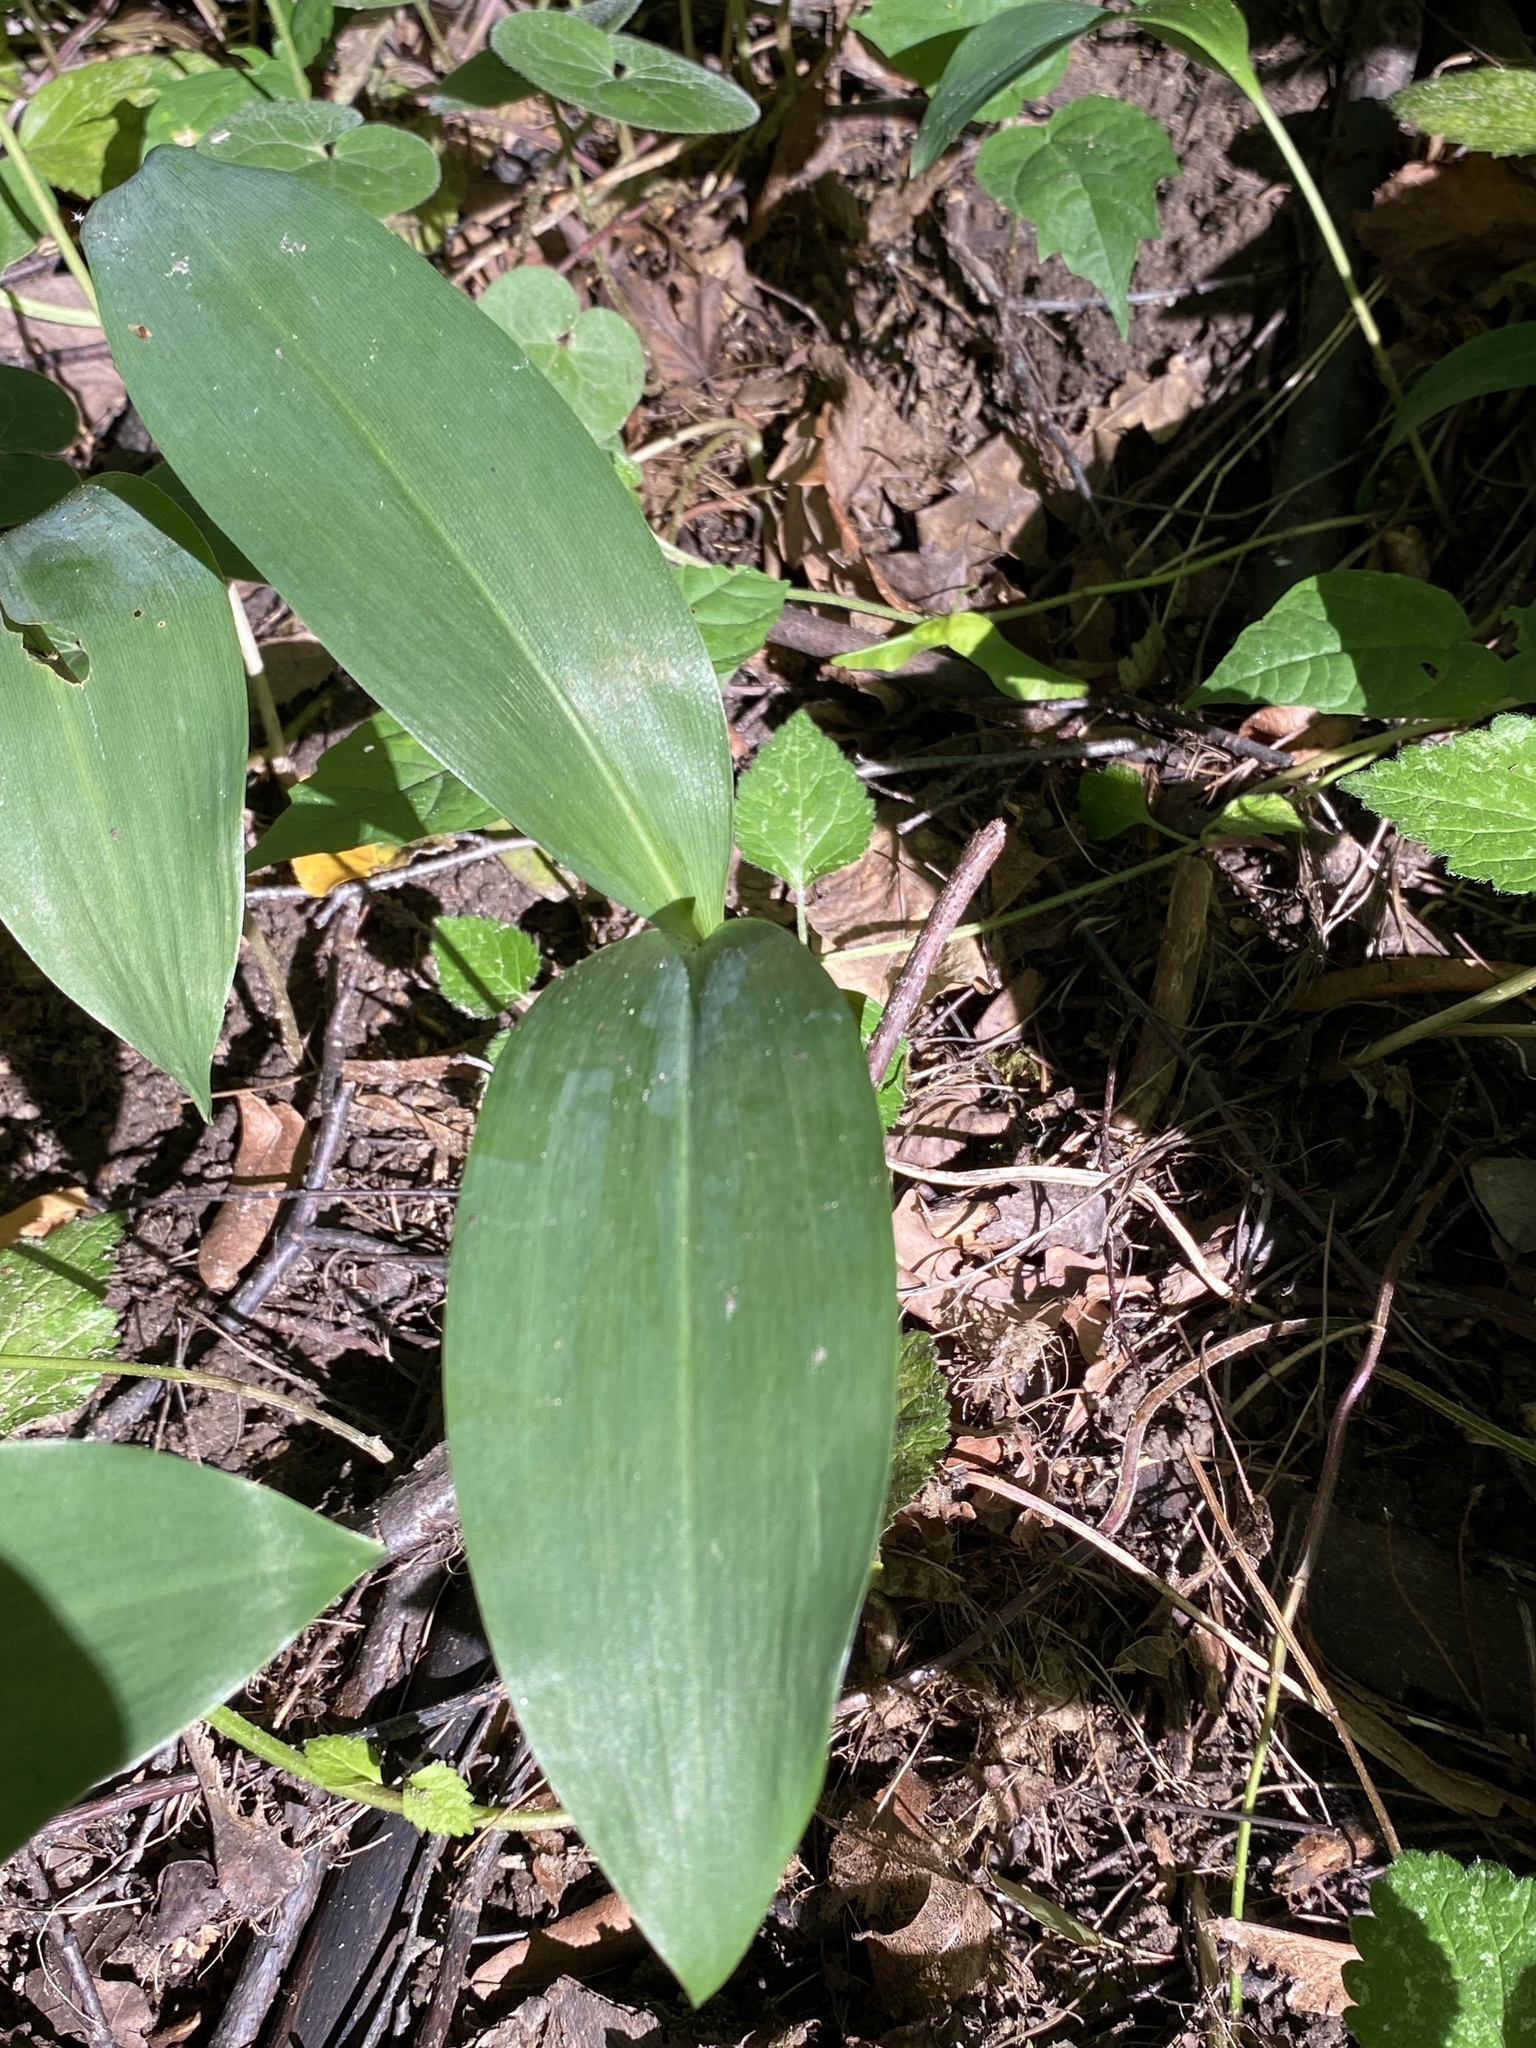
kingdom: Plantae
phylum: Tracheophyta
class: Liliopsida
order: Asparagales
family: Asparagaceae
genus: Convallaria
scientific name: Convallaria majalis
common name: Lily-of-the-valley
